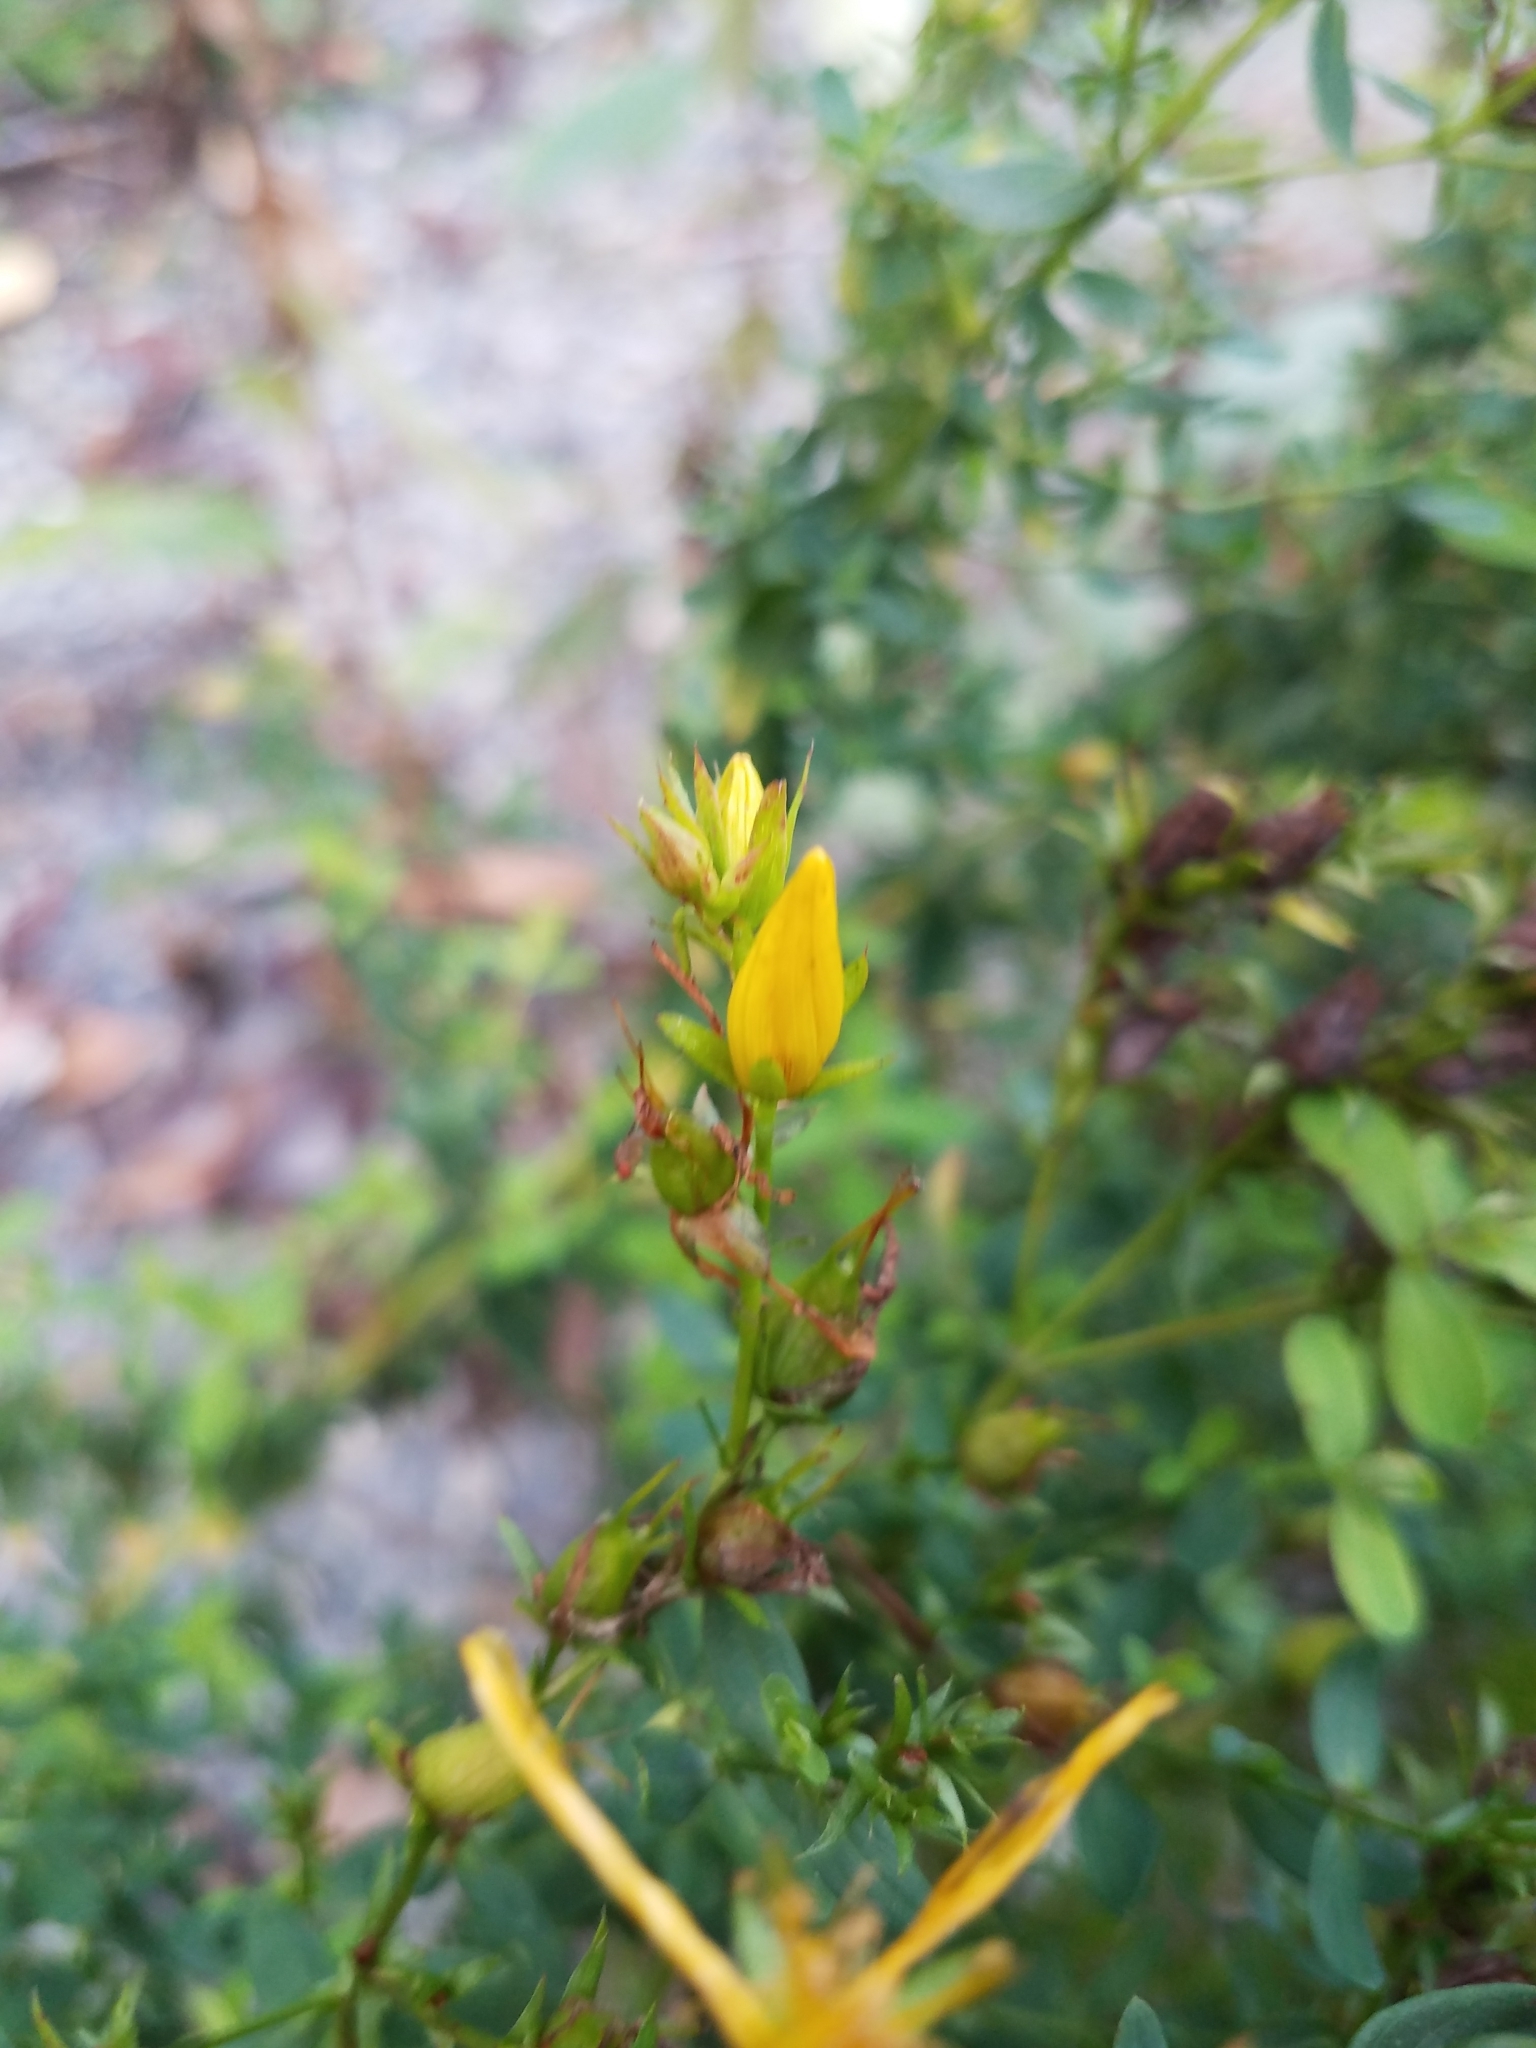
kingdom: Plantae
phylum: Tracheophyta
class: Magnoliopsida
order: Malpighiales
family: Hypericaceae
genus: Hypericum
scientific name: Hypericum perforatum
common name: Common st. johnswort
